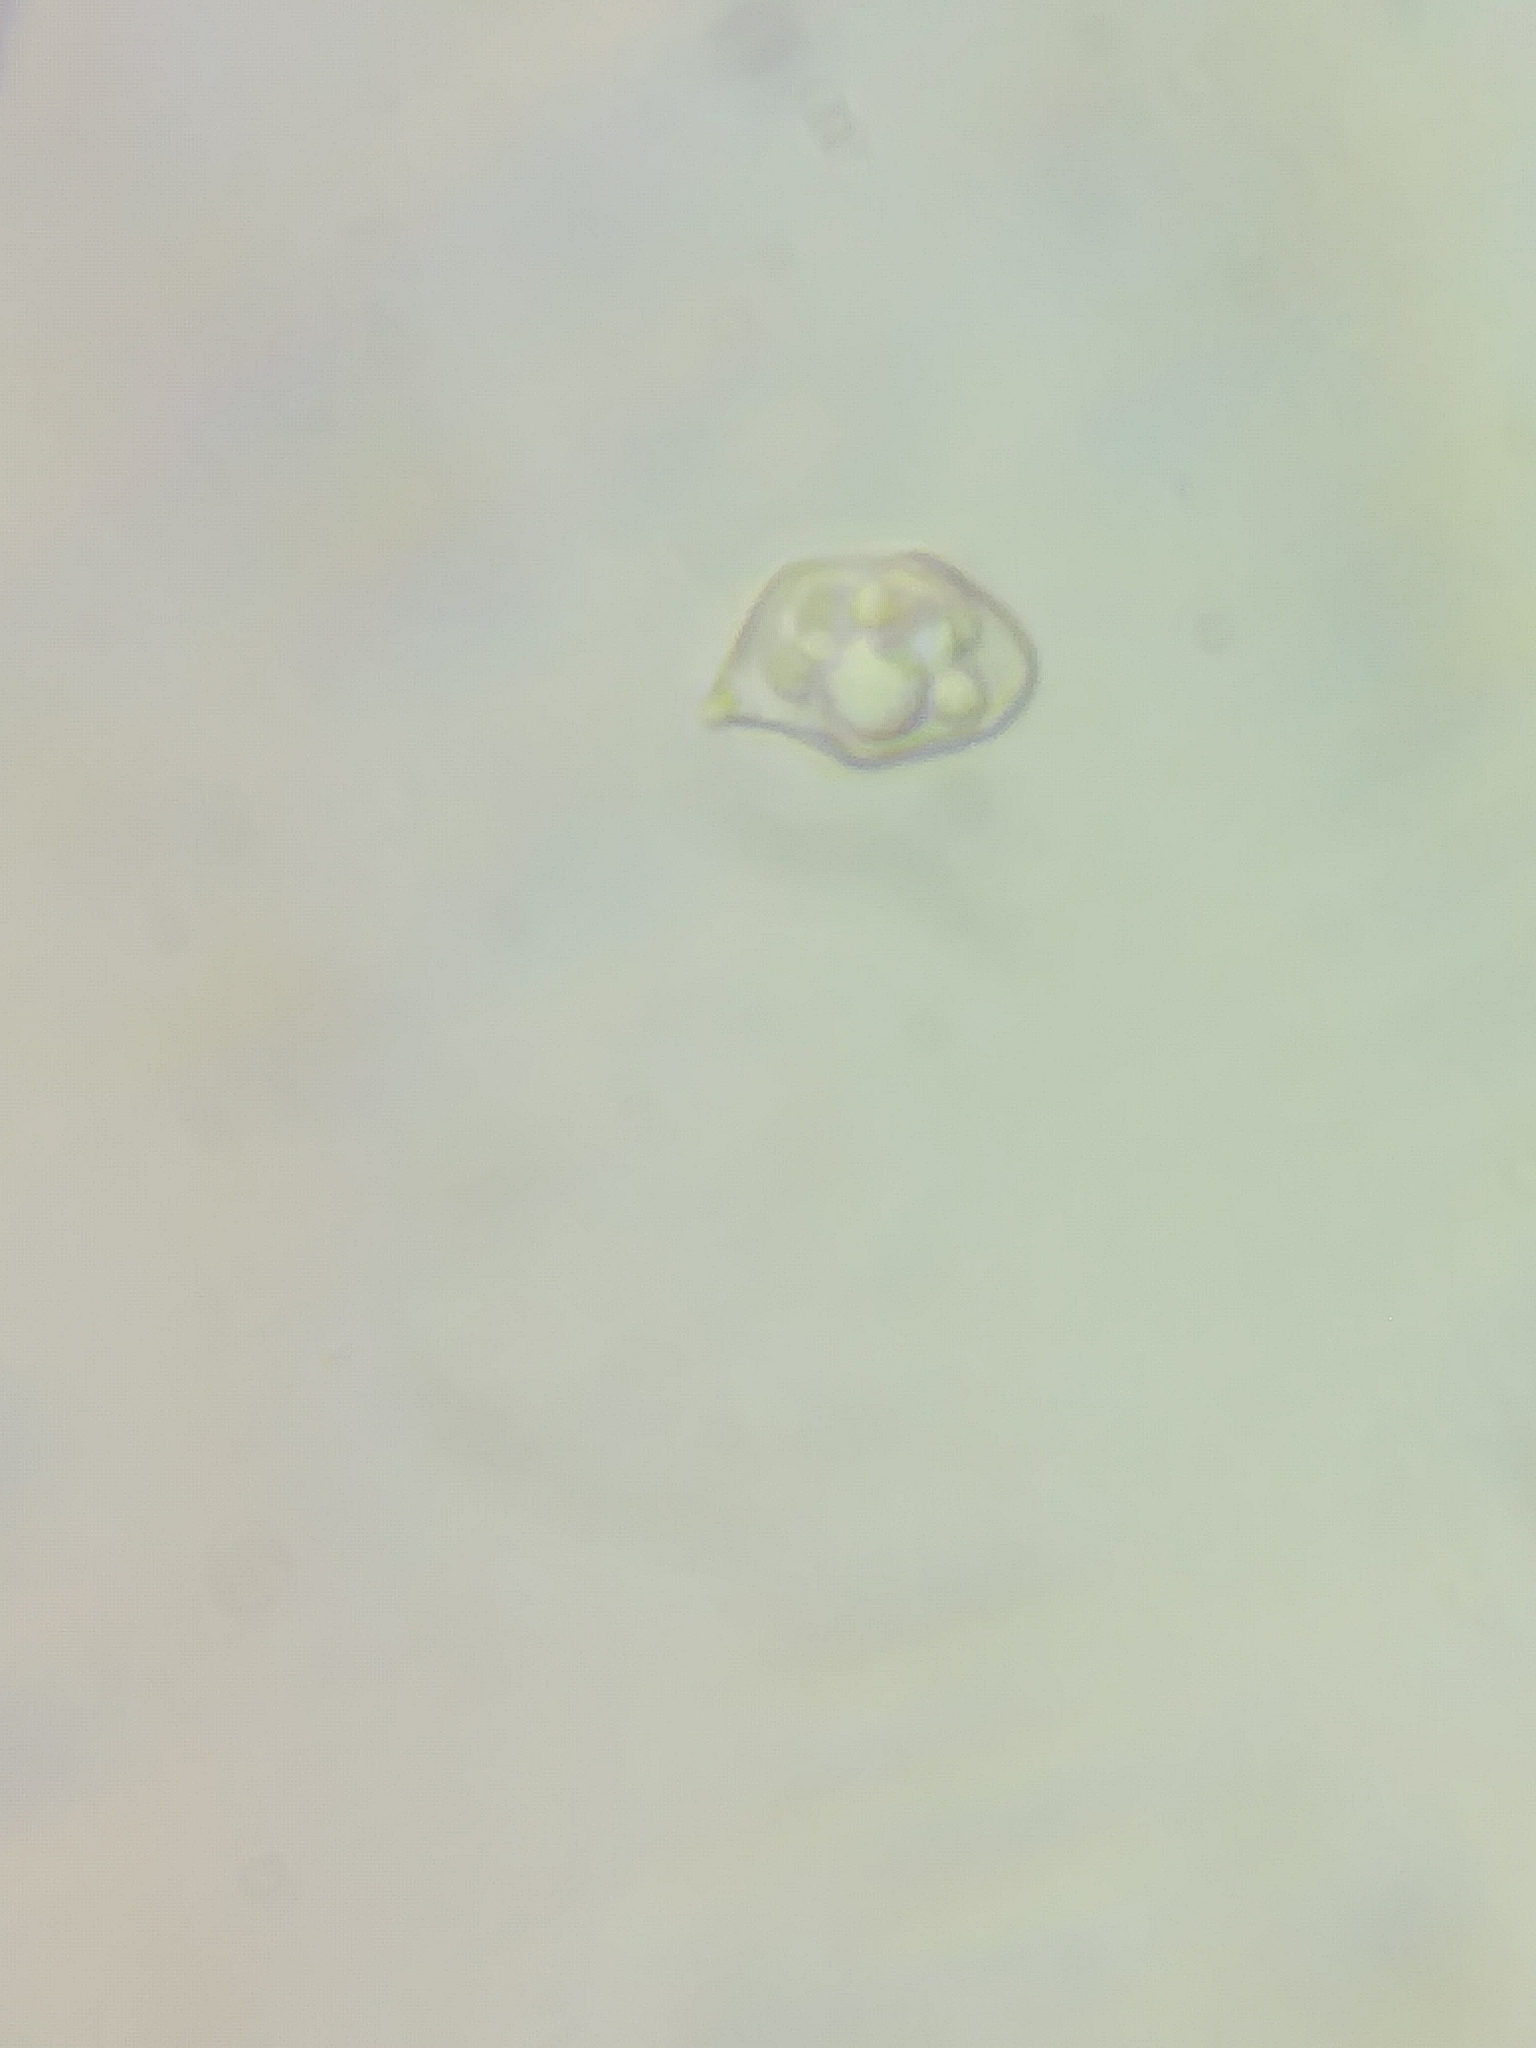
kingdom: Fungi
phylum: Basidiomycota
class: Agaricomycetes
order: Agaricales
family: Entolomataceae
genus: Entoloma
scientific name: Entoloma formosum
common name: Pretty pinkgill
